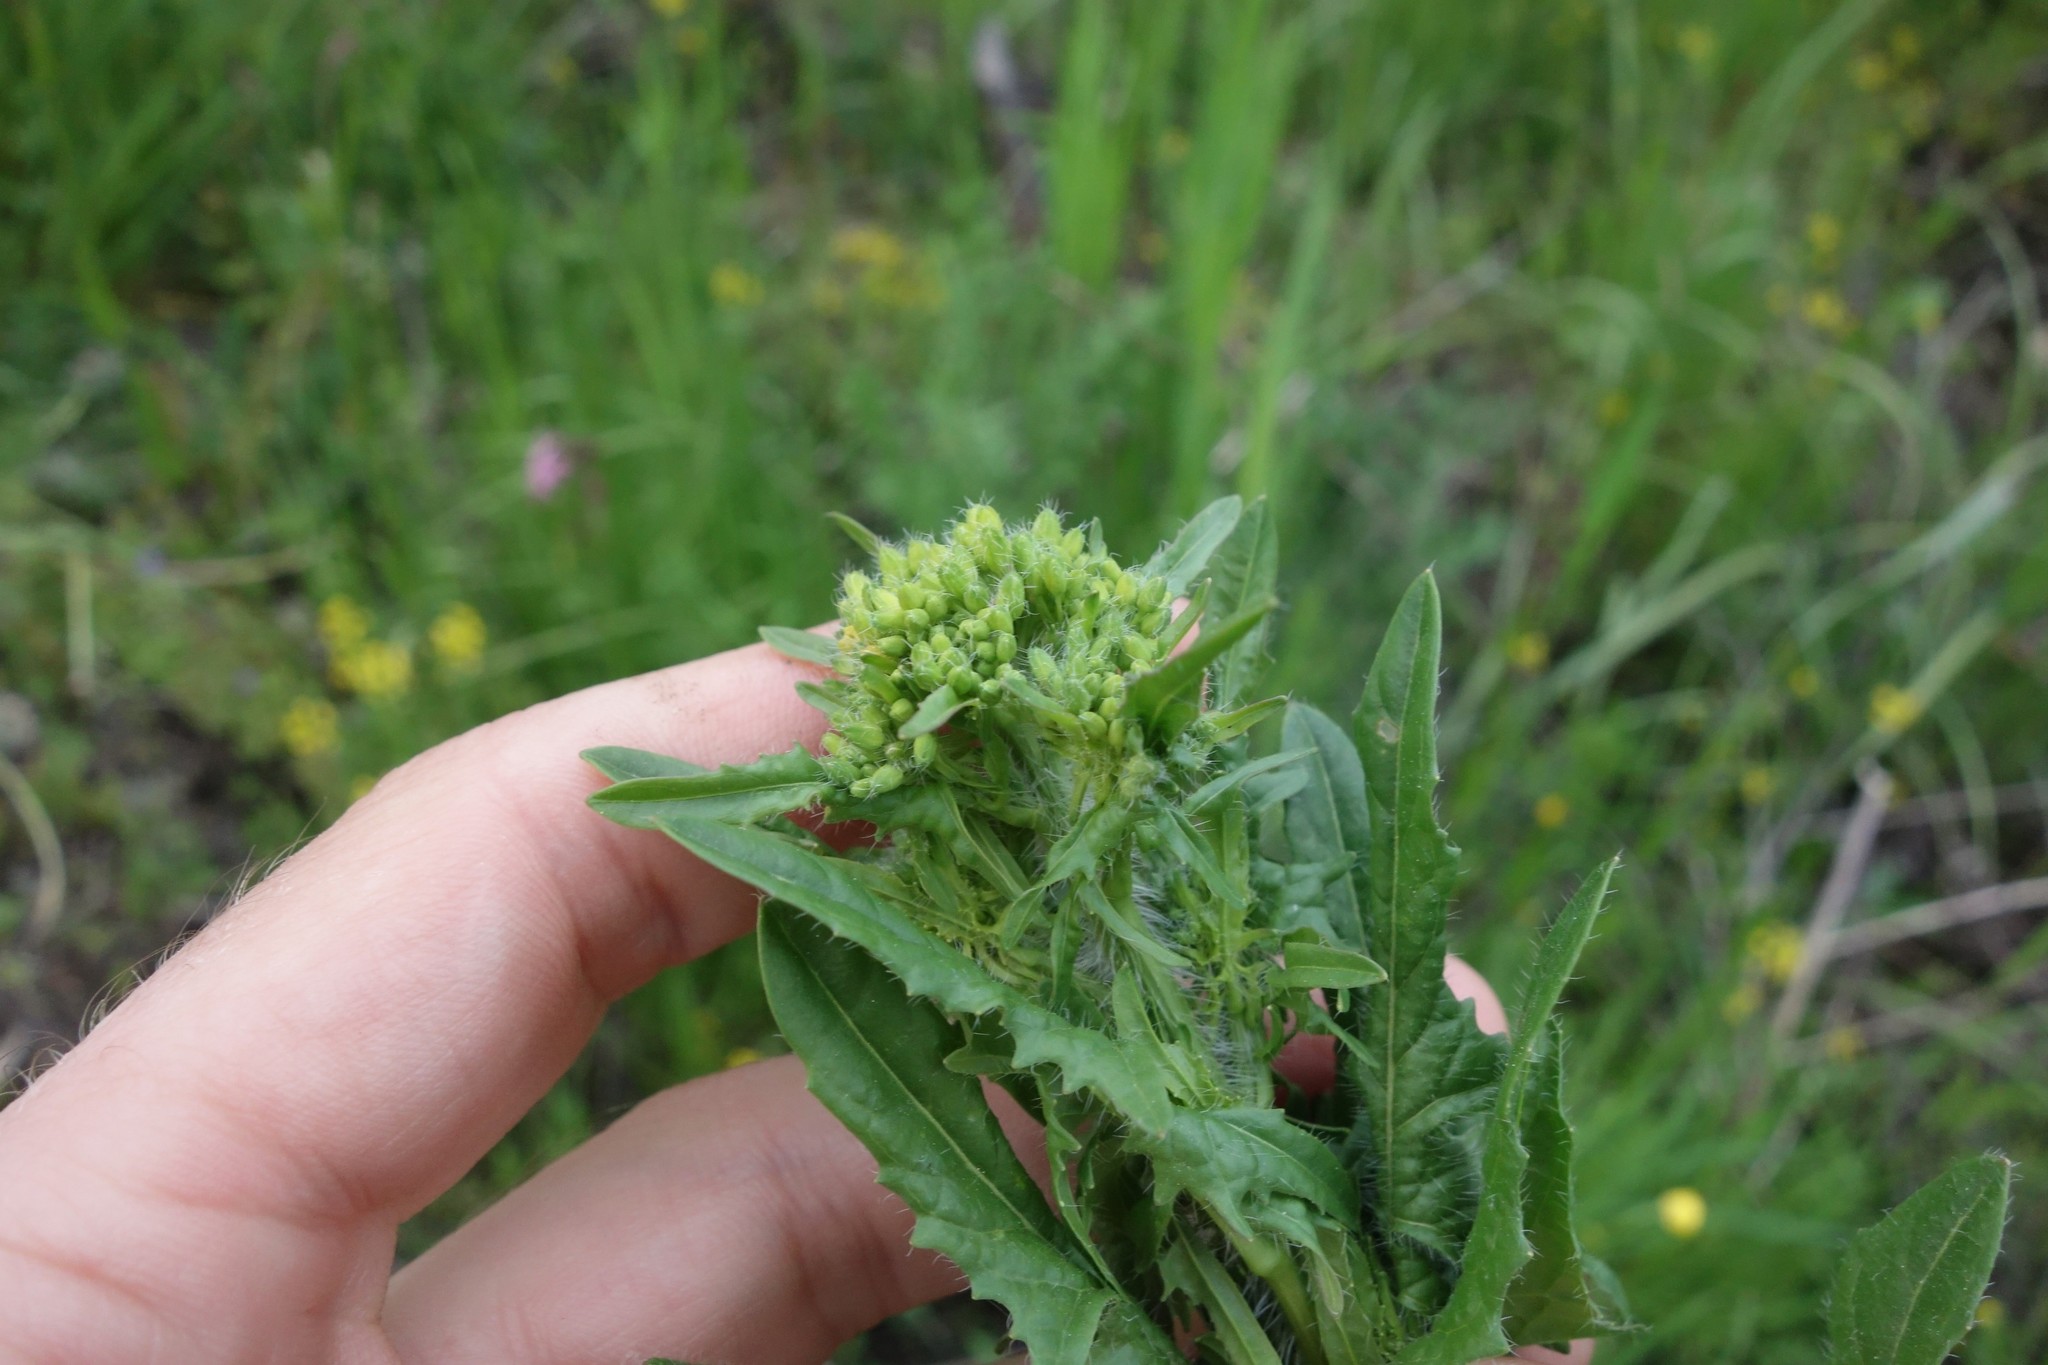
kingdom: Plantae
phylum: Tracheophyta
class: Magnoliopsida
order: Brassicales
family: Brassicaceae
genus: Sisymbrium
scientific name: Sisymbrium loeselii
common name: False london-rocket
